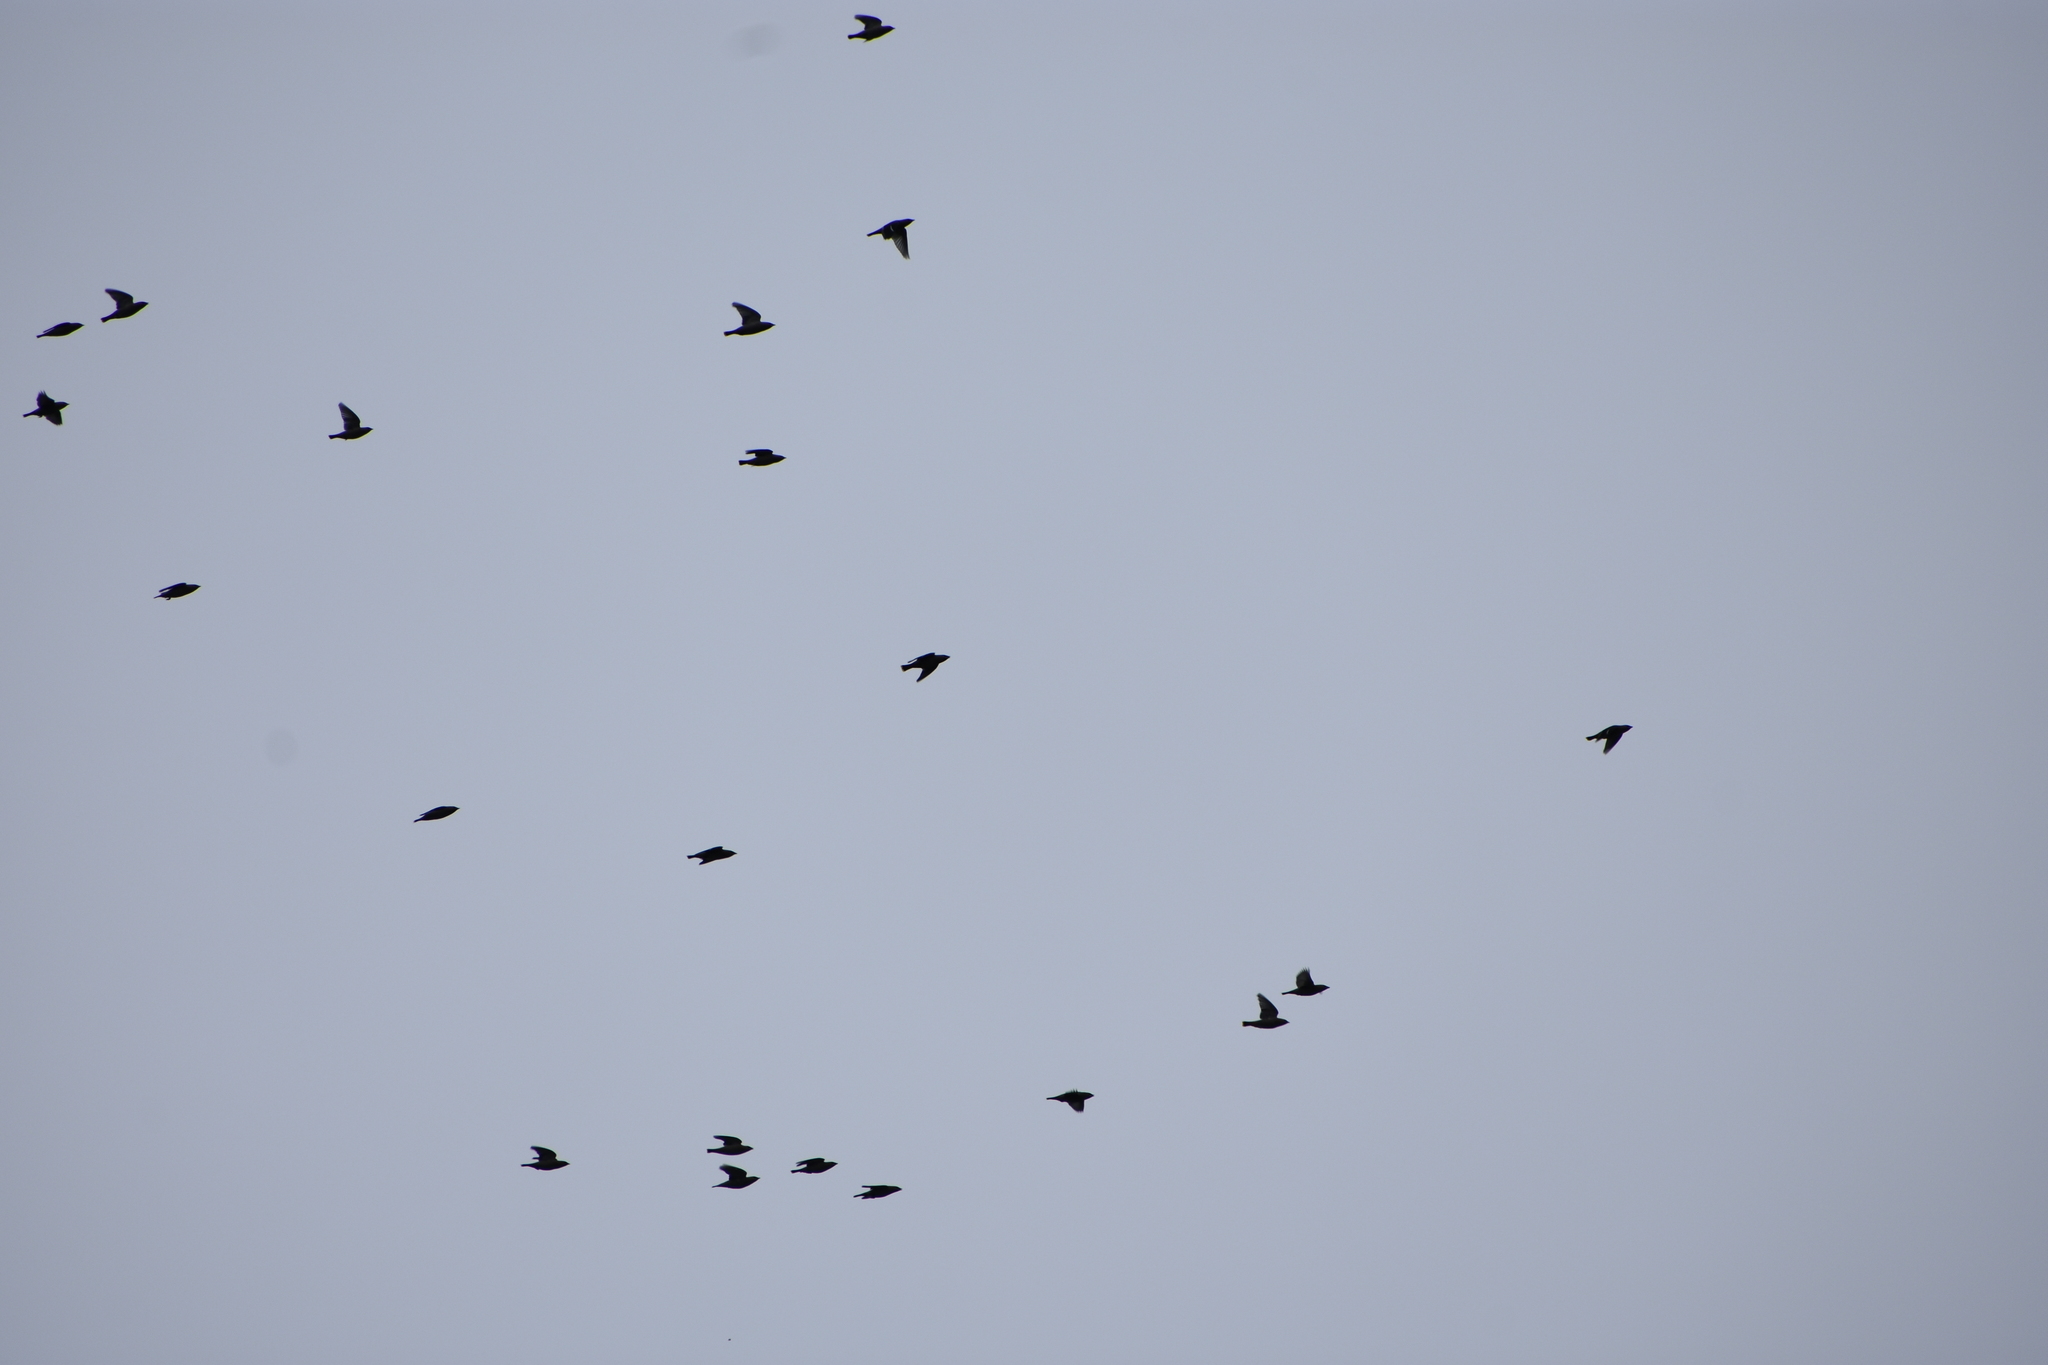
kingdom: Animalia
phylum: Chordata
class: Aves
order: Passeriformes
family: Bombycillidae
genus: Bombycilla
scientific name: Bombycilla garrulus
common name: Bohemian waxwing
